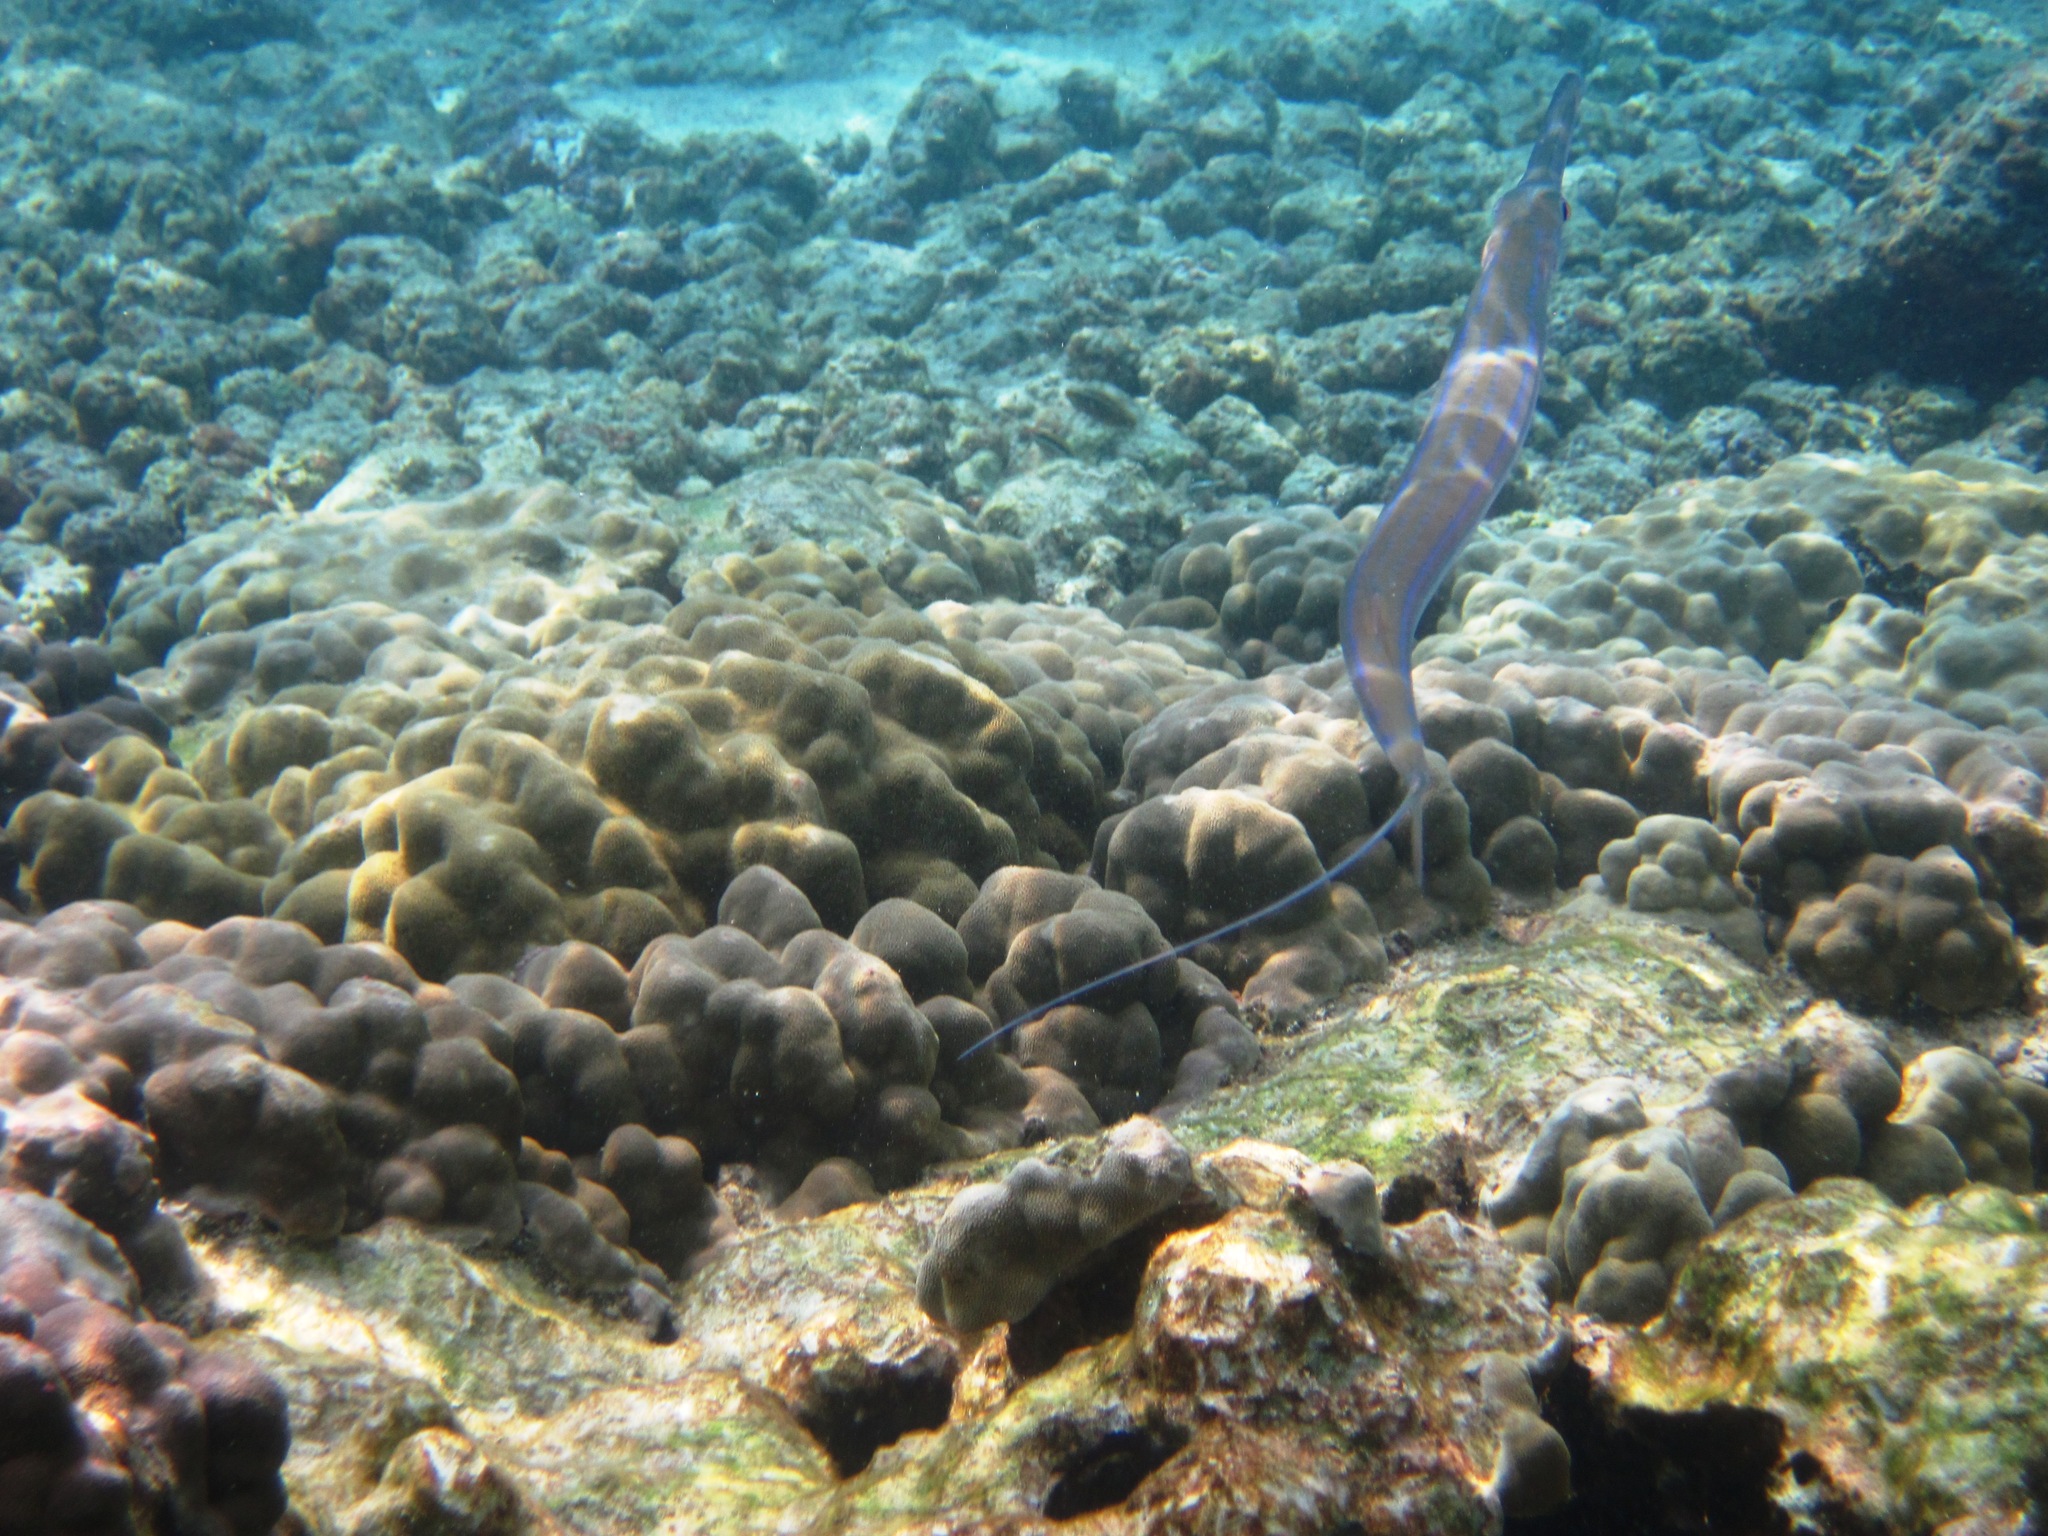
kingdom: Animalia
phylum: Chordata
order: Syngnathiformes
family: Fistulariidae
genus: Fistularia
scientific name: Fistularia commersonii
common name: Bluespotted cornetfish
